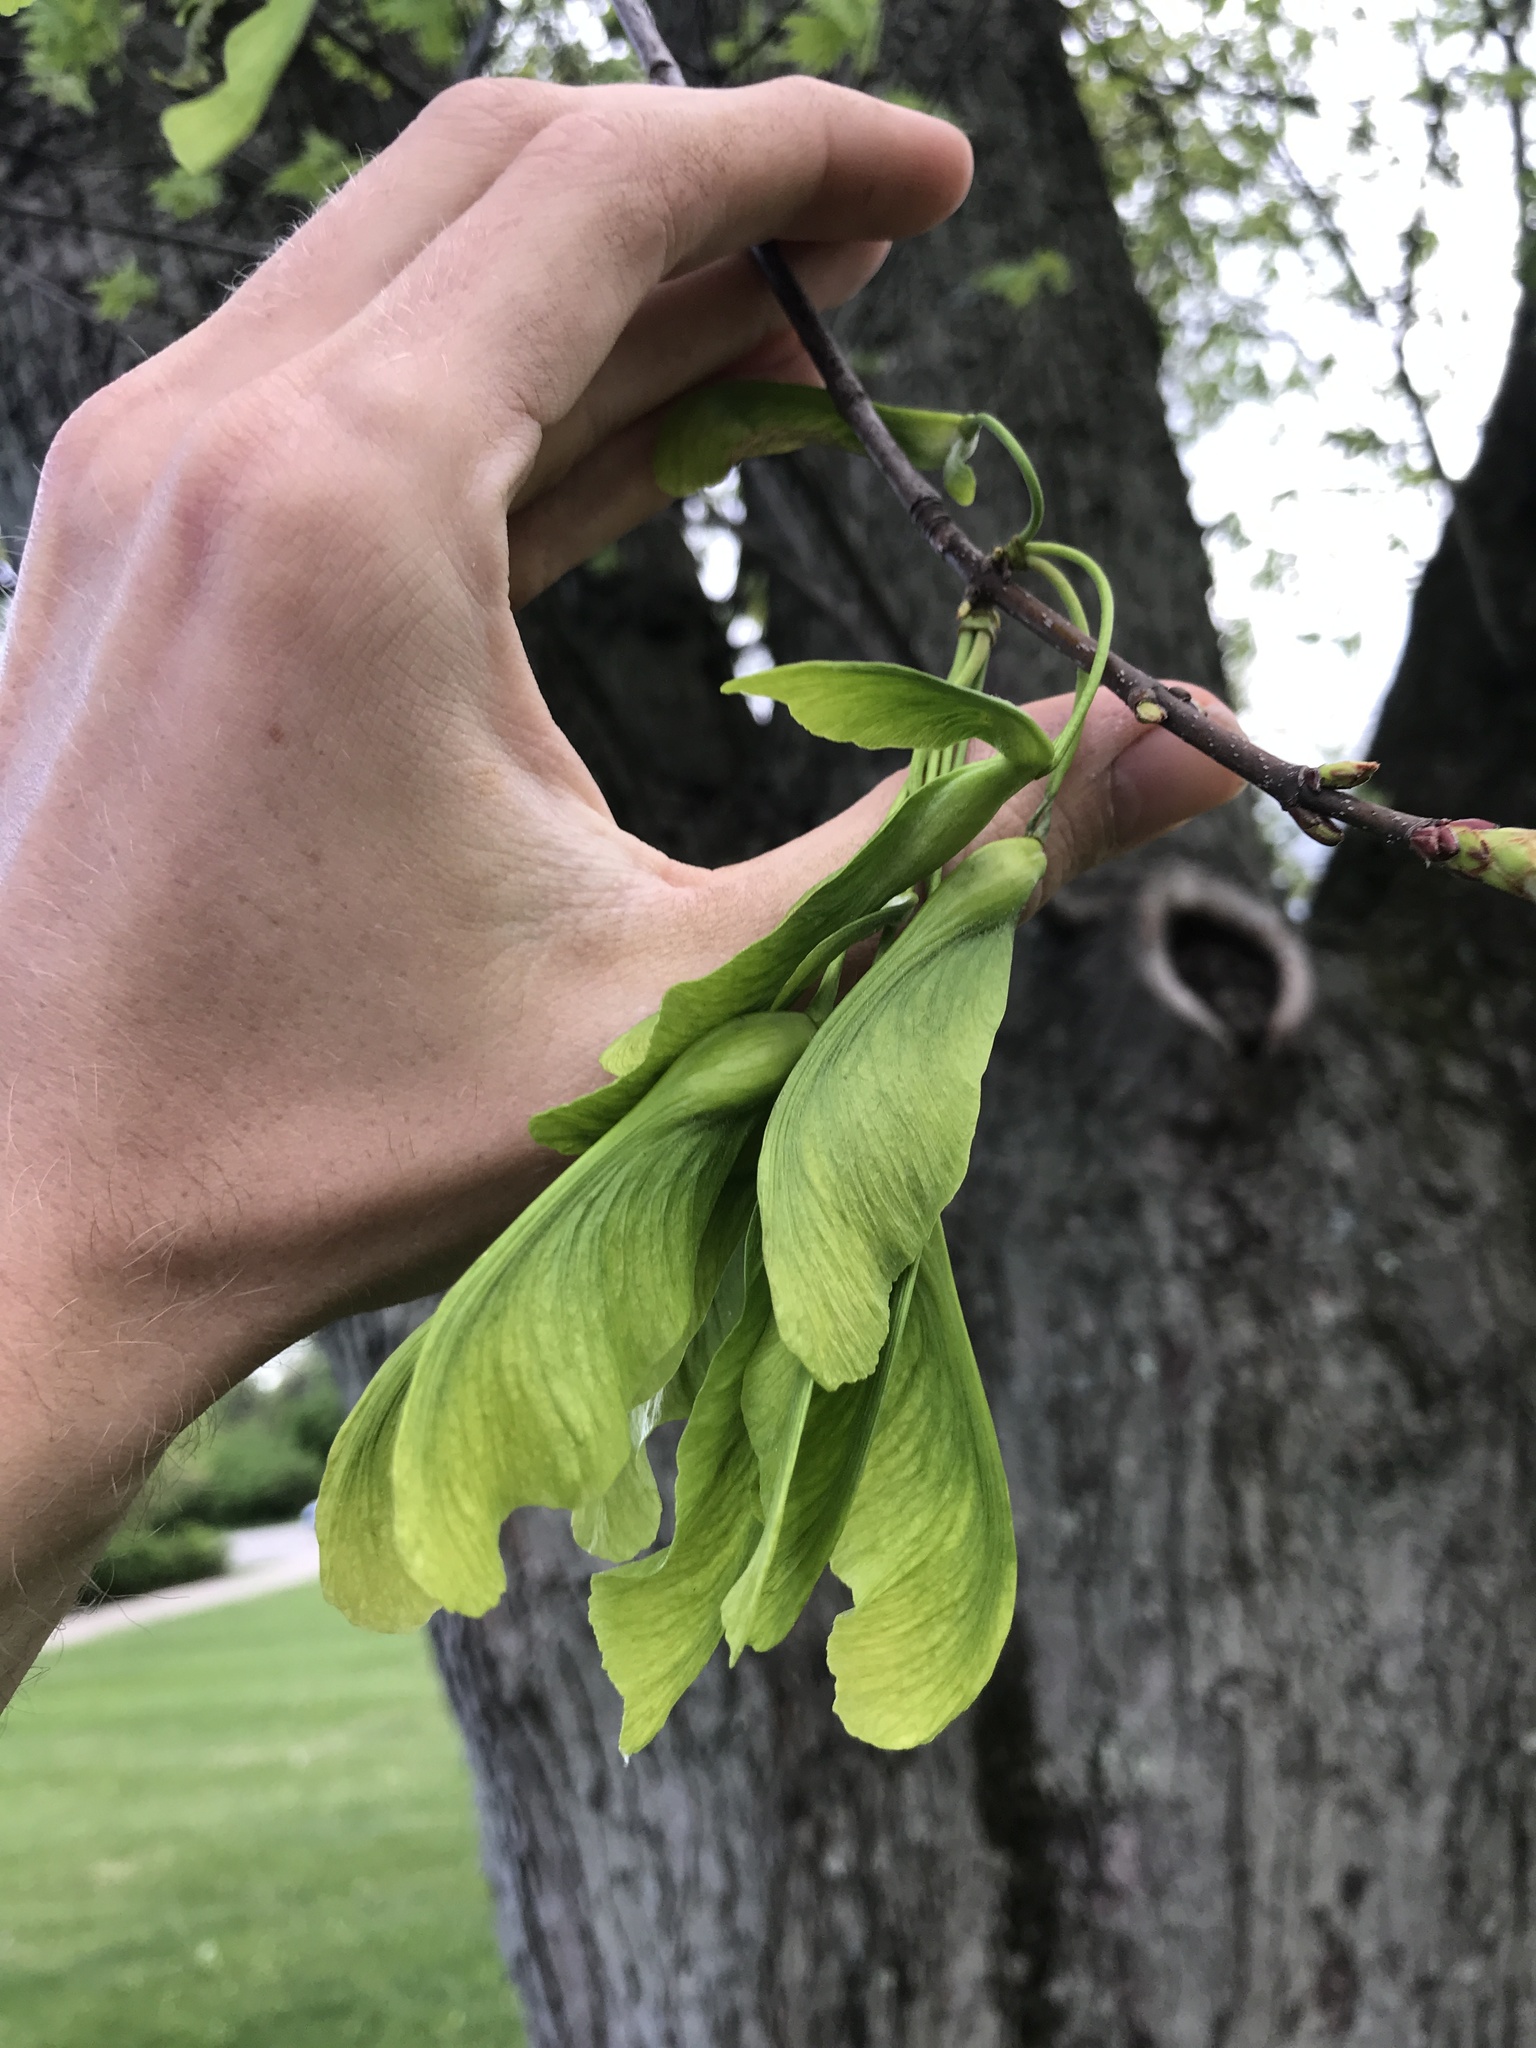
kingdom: Plantae
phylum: Tracheophyta
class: Magnoliopsida
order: Sapindales
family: Sapindaceae
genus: Acer
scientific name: Acer saccharinum
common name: Silver maple
